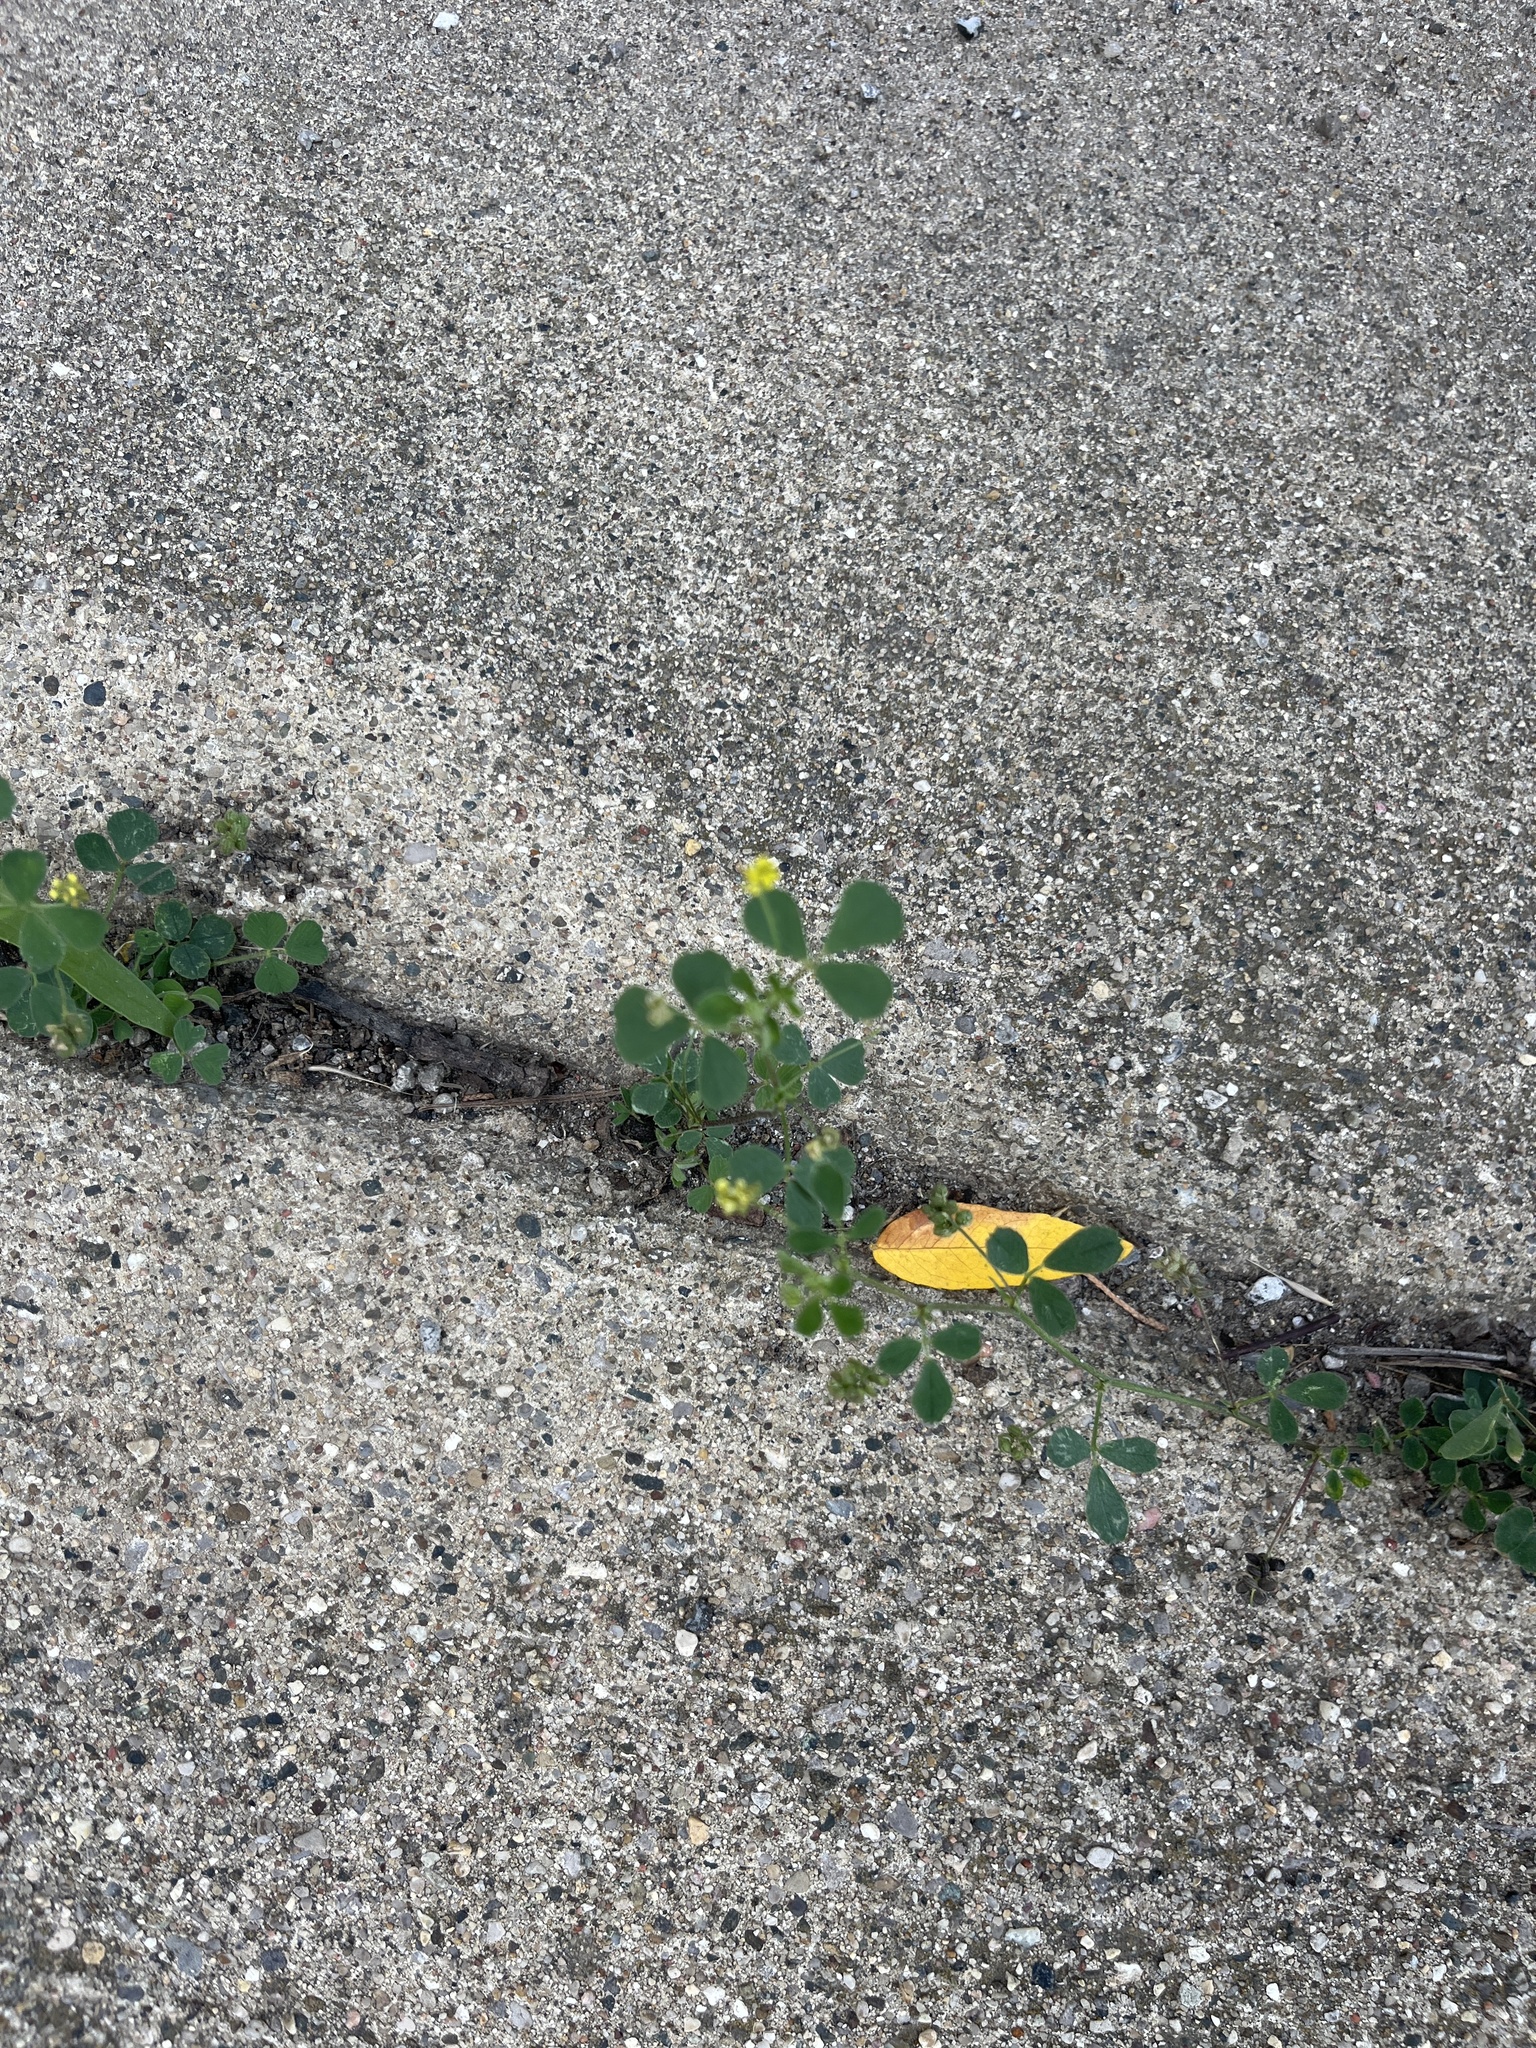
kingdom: Plantae
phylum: Tracheophyta
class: Magnoliopsida
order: Fabales
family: Fabaceae
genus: Medicago
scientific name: Medicago lupulina
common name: Black medick
